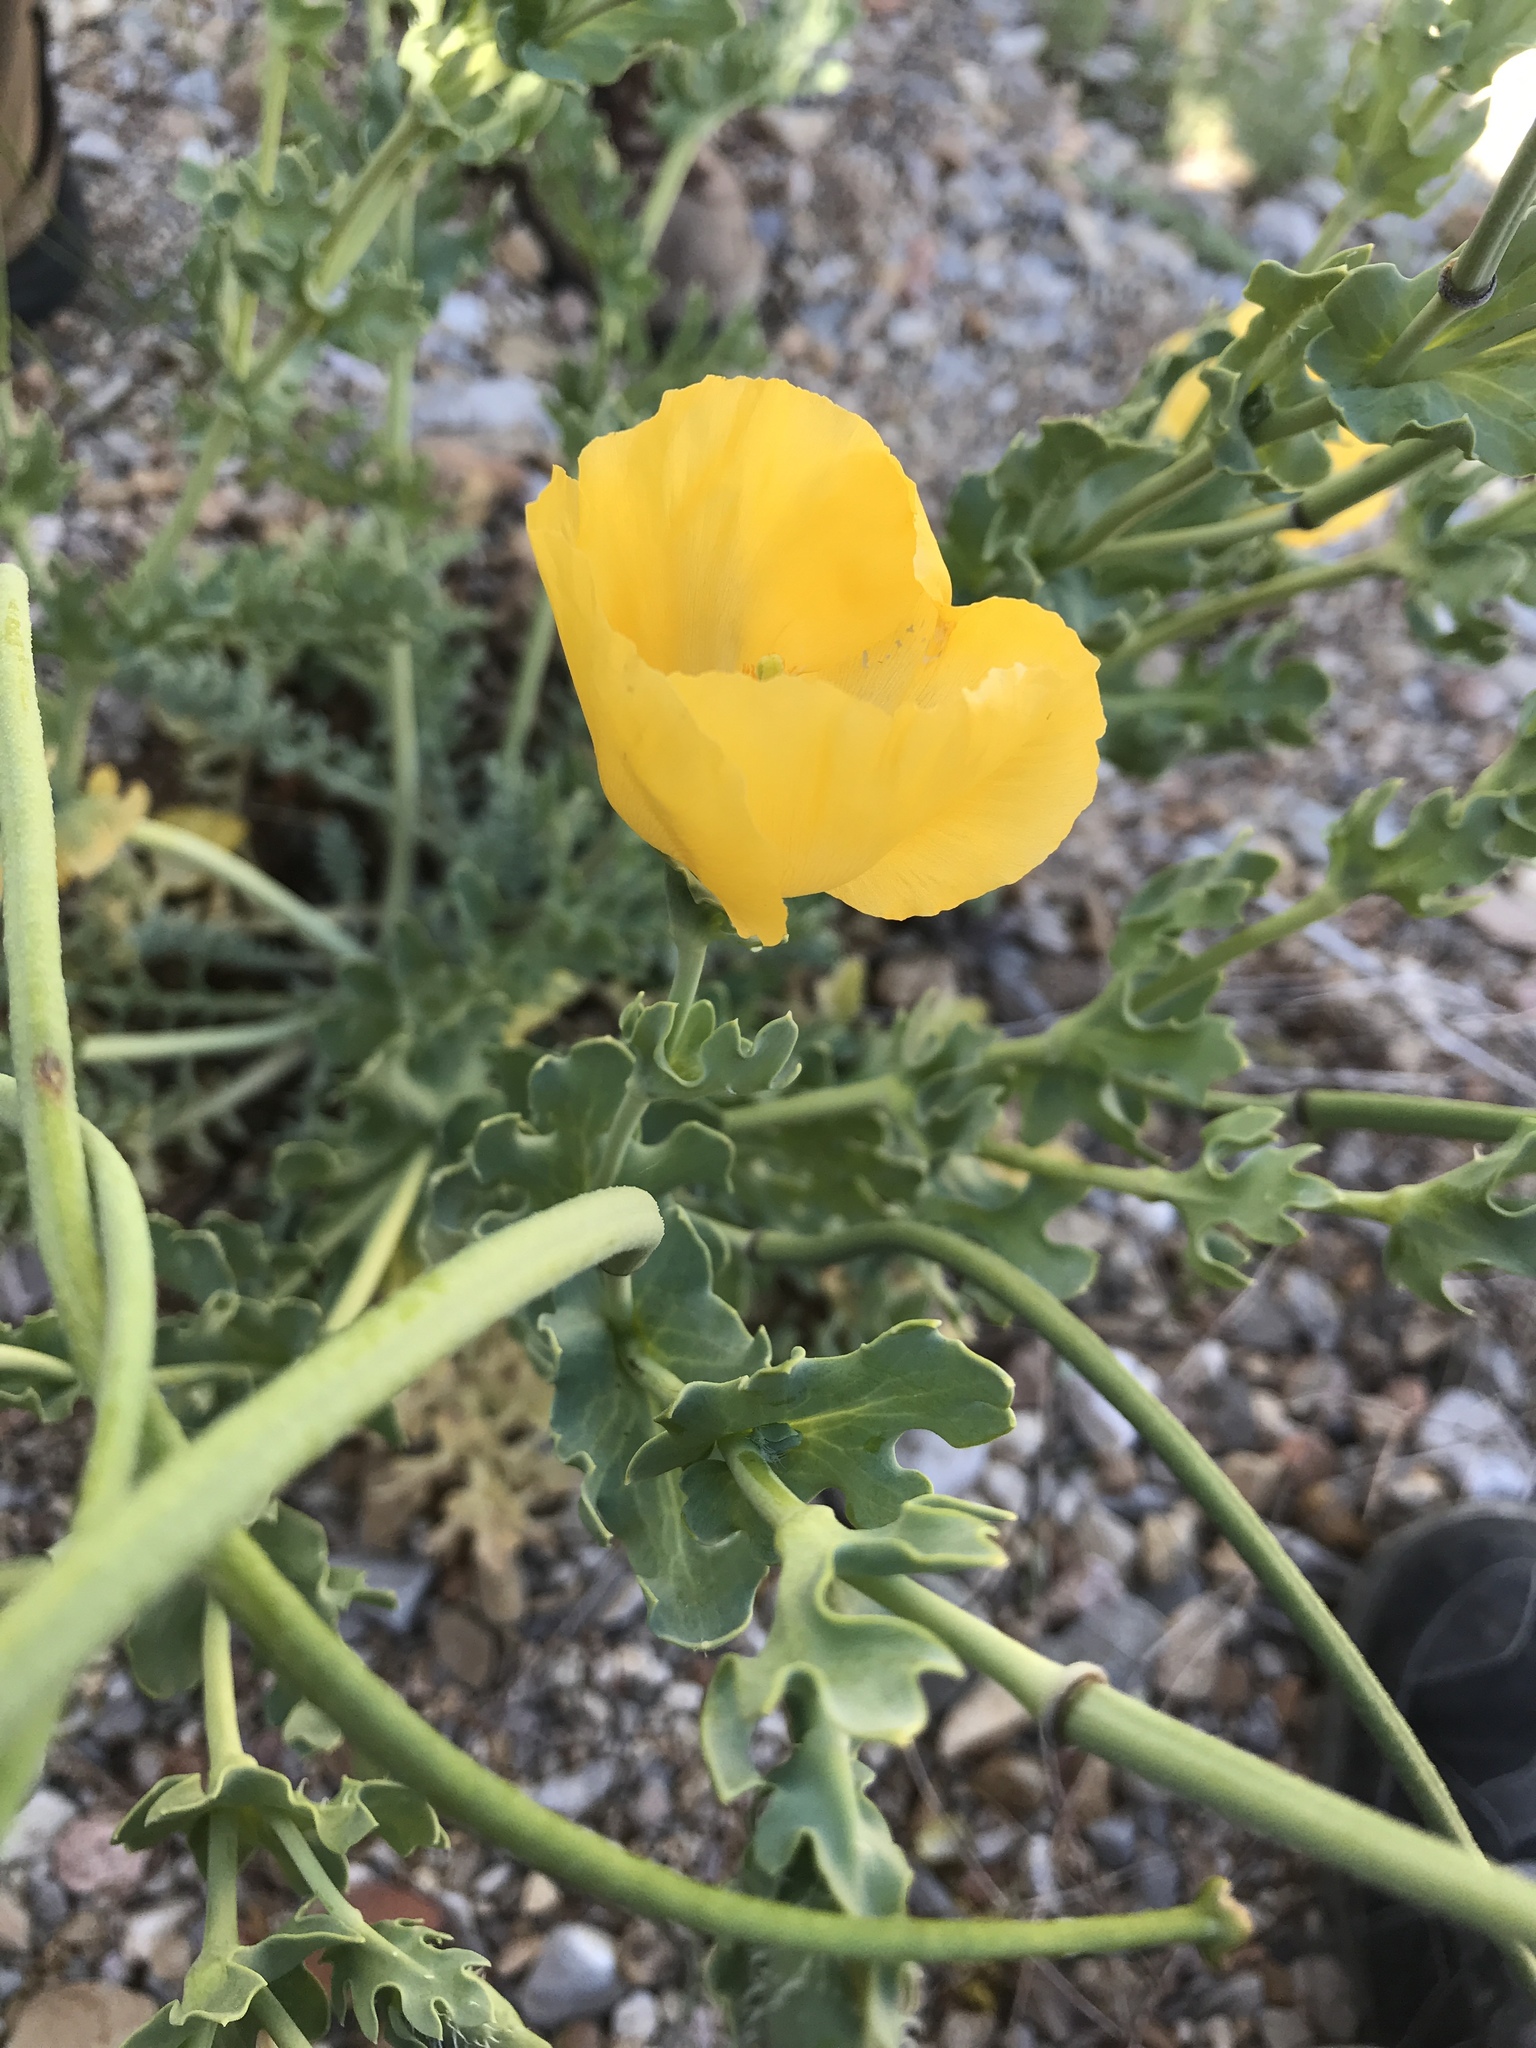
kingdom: Plantae
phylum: Tracheophyta
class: Magnoliopsida
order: Ranunculales
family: Papaveraceae
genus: Glaucium
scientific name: Glaucium flavum
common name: Yellow horned-poppy
